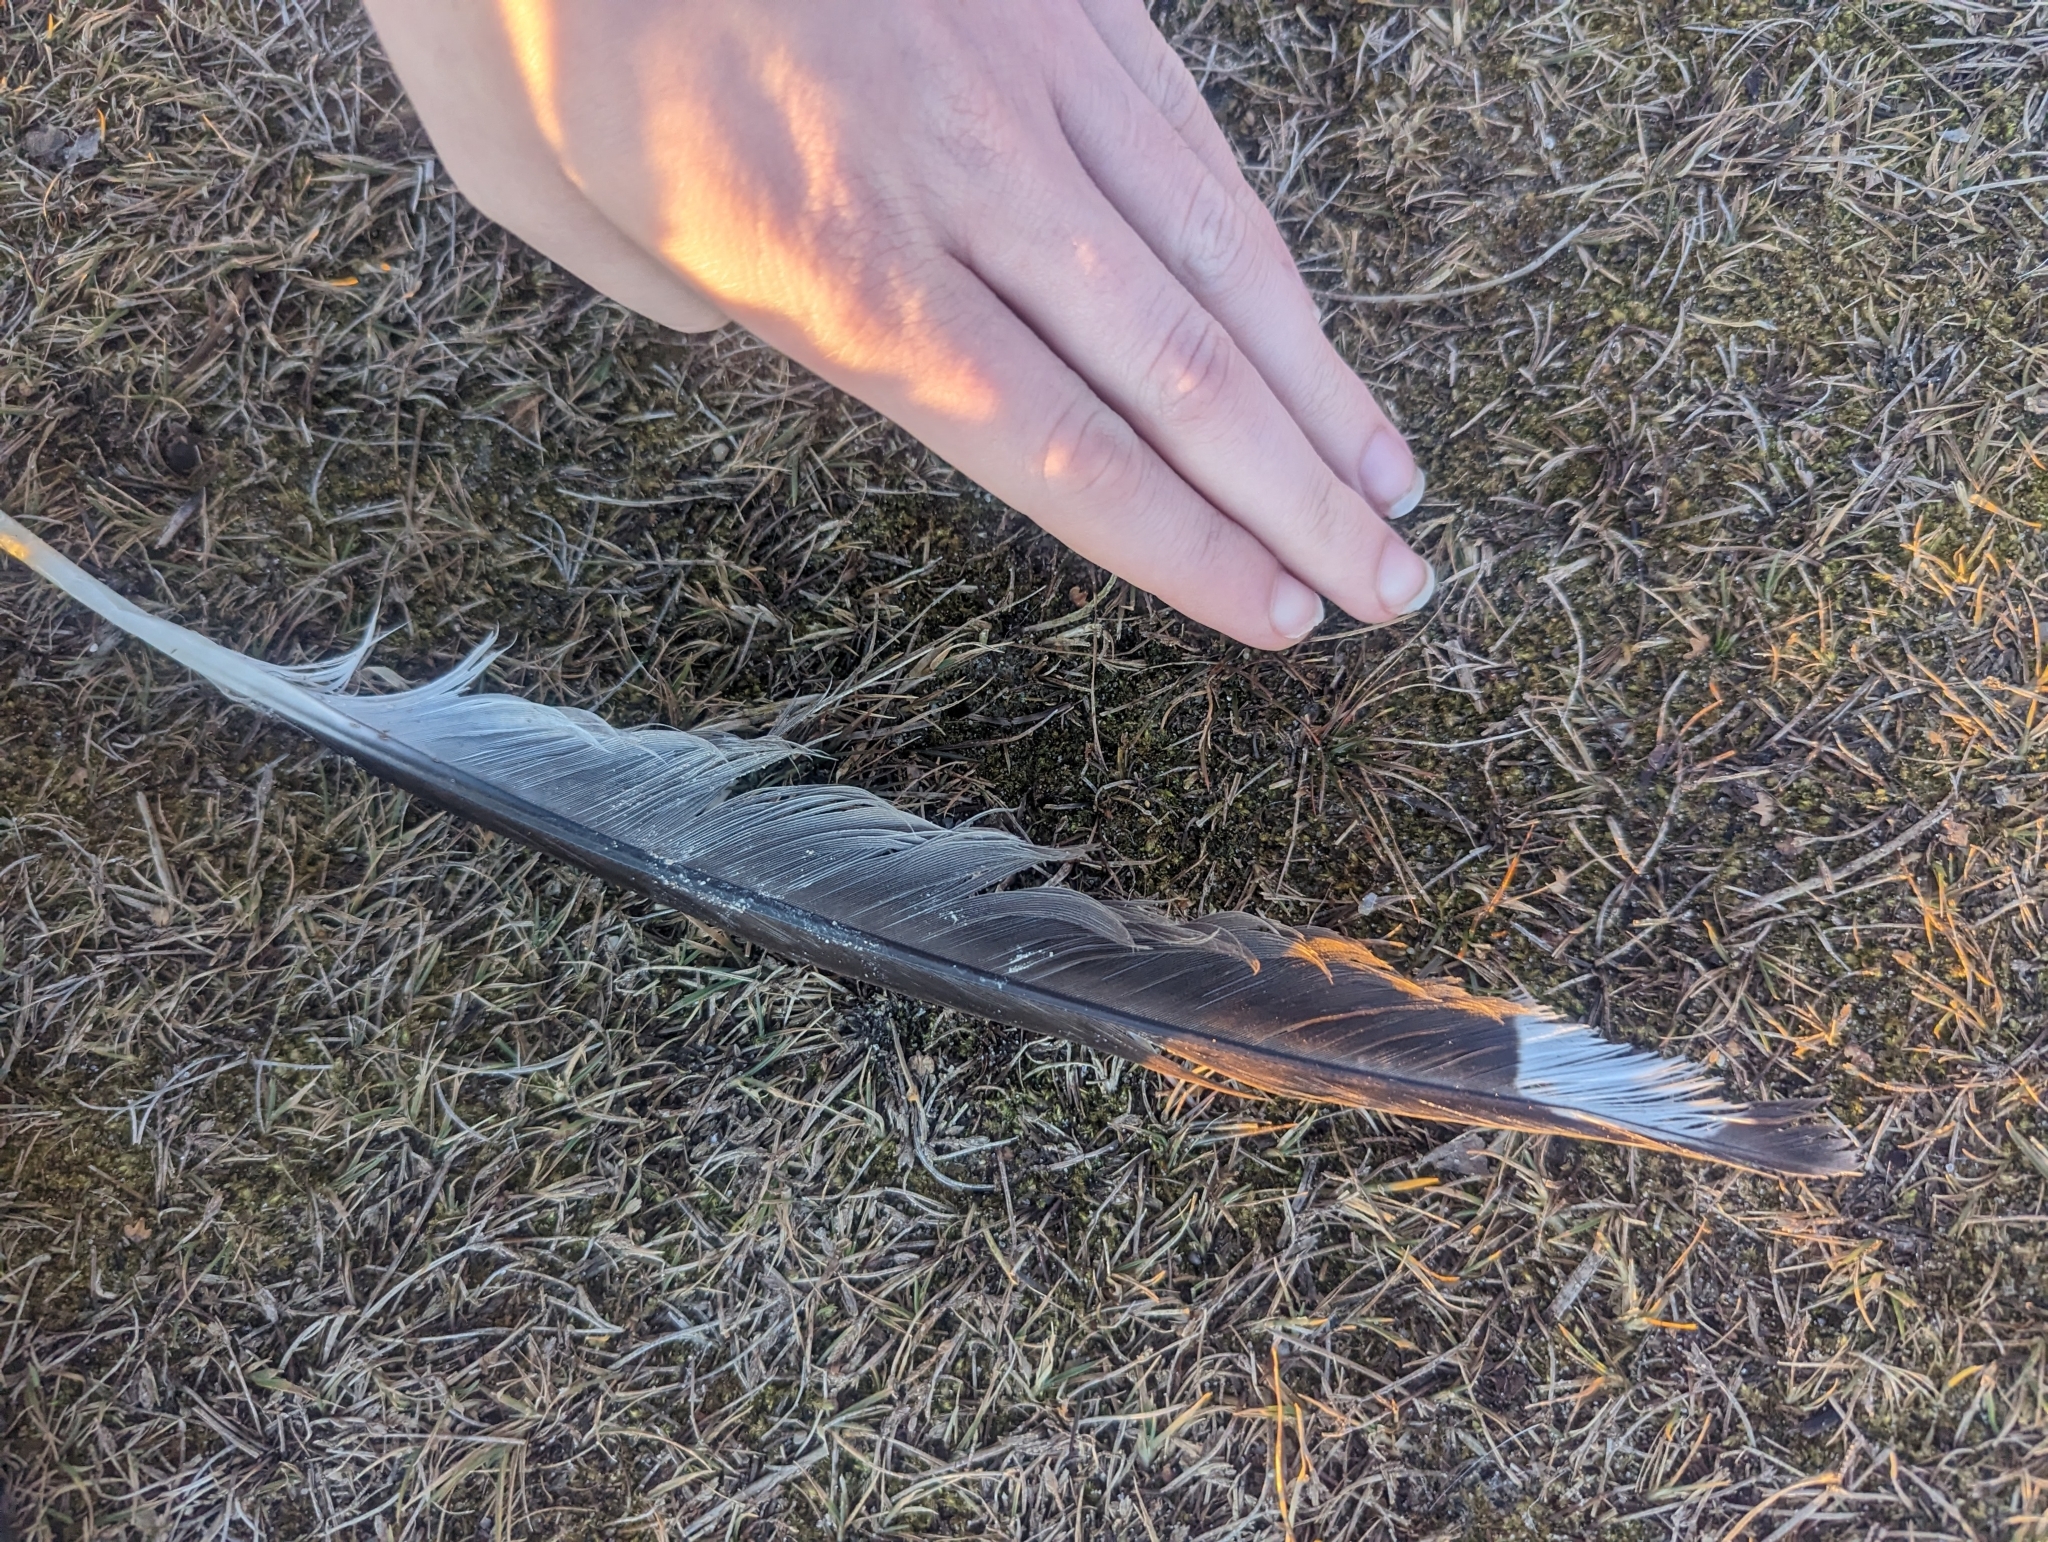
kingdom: Animalia
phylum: Chordata
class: Aves
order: Charadriiformes
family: Laridae
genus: Larus
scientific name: Larus
